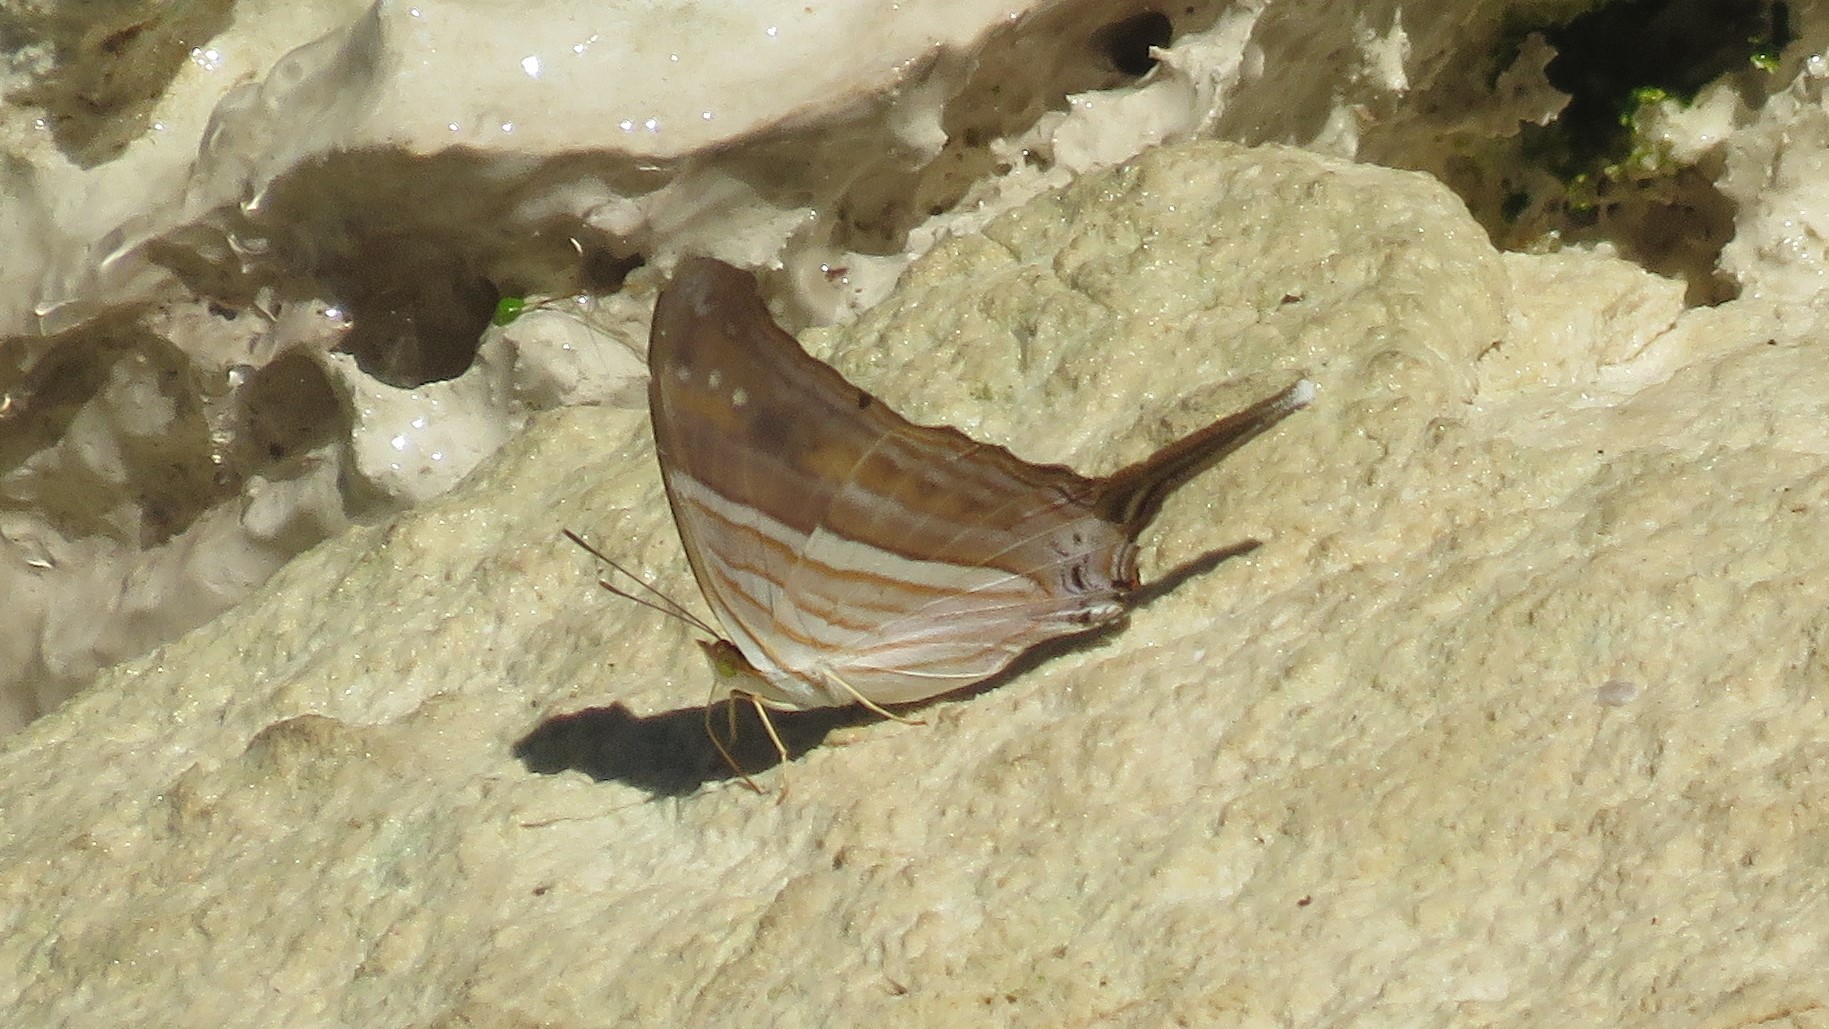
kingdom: Animalia
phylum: Arthropoda
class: Insecta
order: Lepidoptera
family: Nymphalidae
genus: Marpesia
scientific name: Marpesia chiron
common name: Many-banded daggerwing
